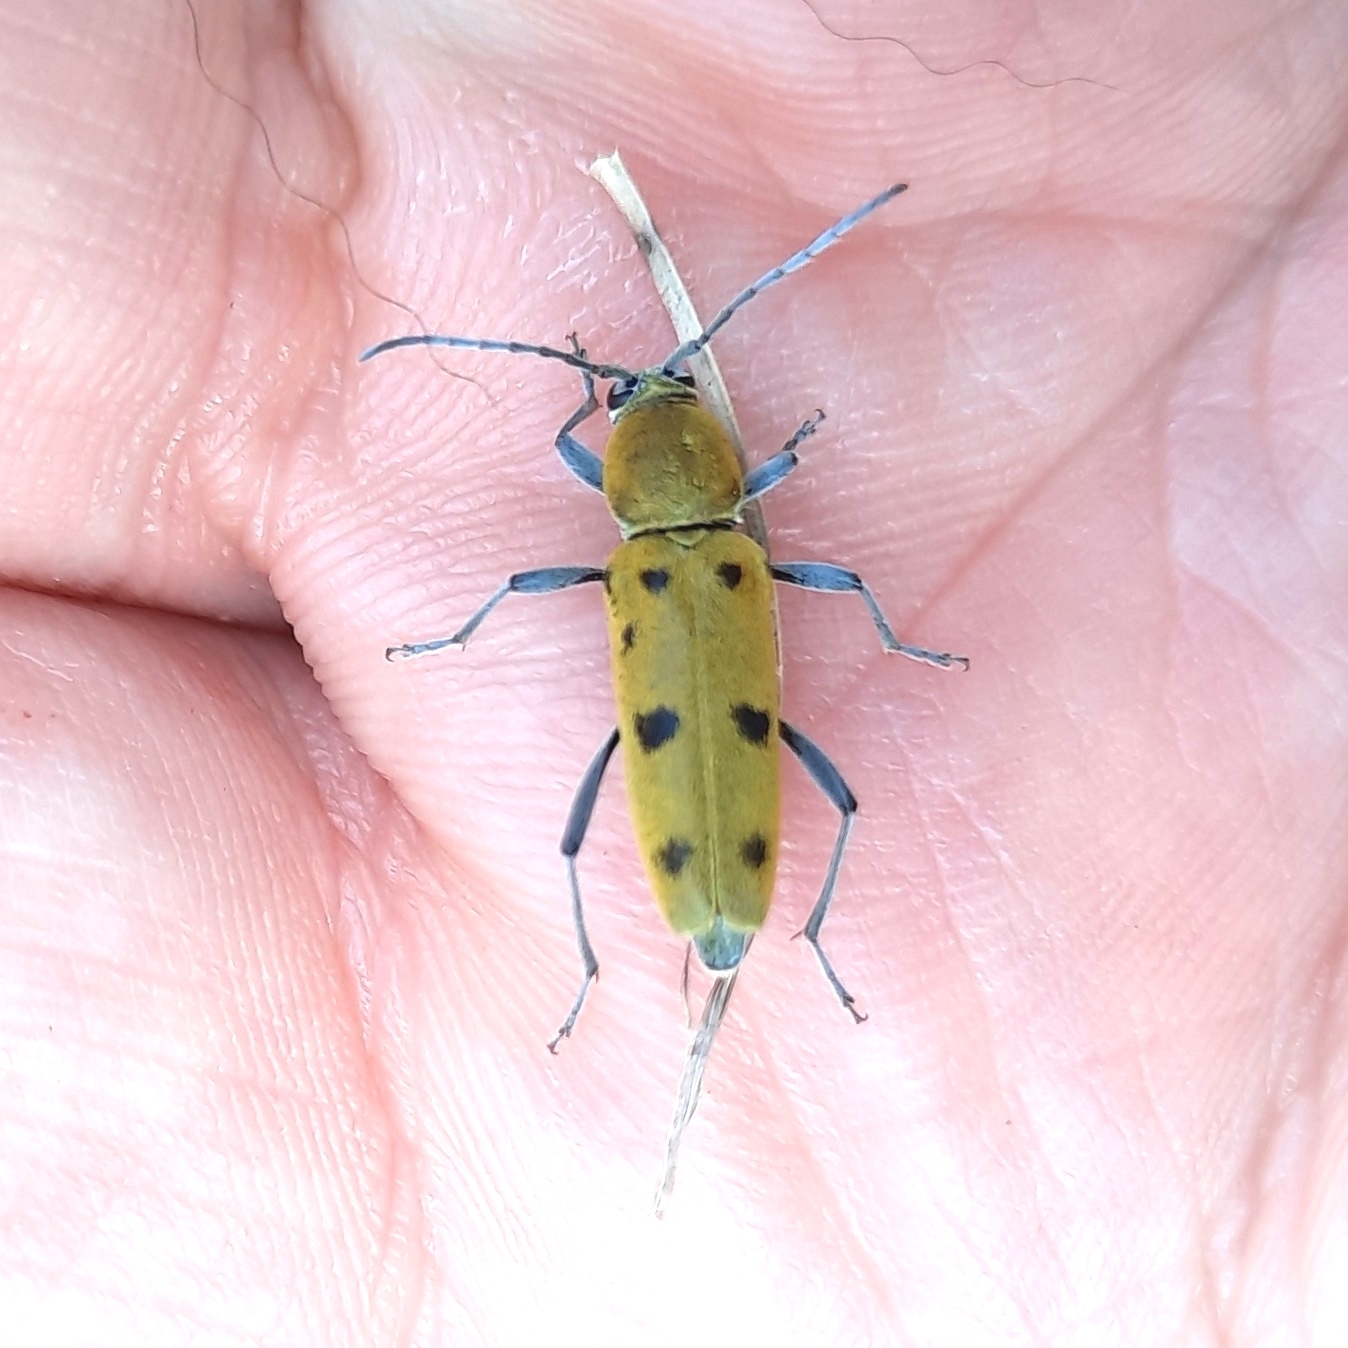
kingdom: Animalia
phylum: Arthropoda
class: Insecta
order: Coleoptera
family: Cerambycidae
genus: Chlorophorus
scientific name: Chlorophorus glabromaculatus
